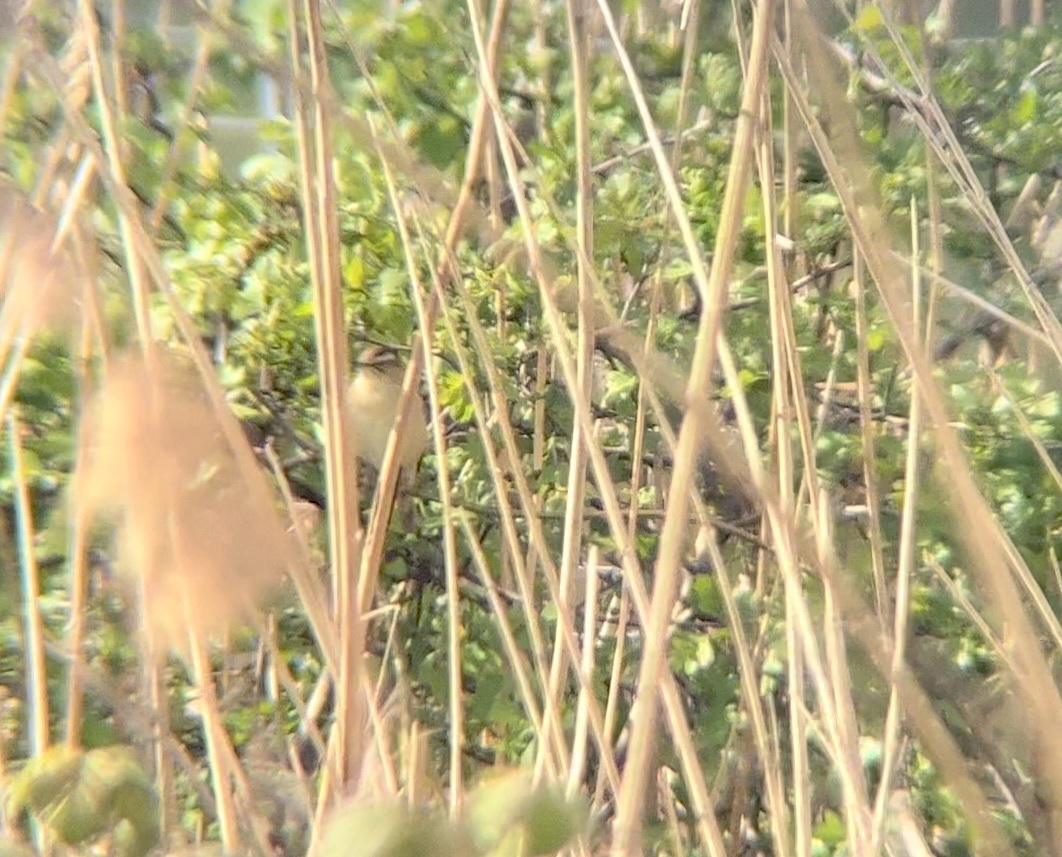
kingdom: Animalia
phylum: Chordata
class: Aves
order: Passeriformes
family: Acrocephalidae
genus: Acrocephalus
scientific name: Acrocephalus schoenobaenus
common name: Sedge warbler
